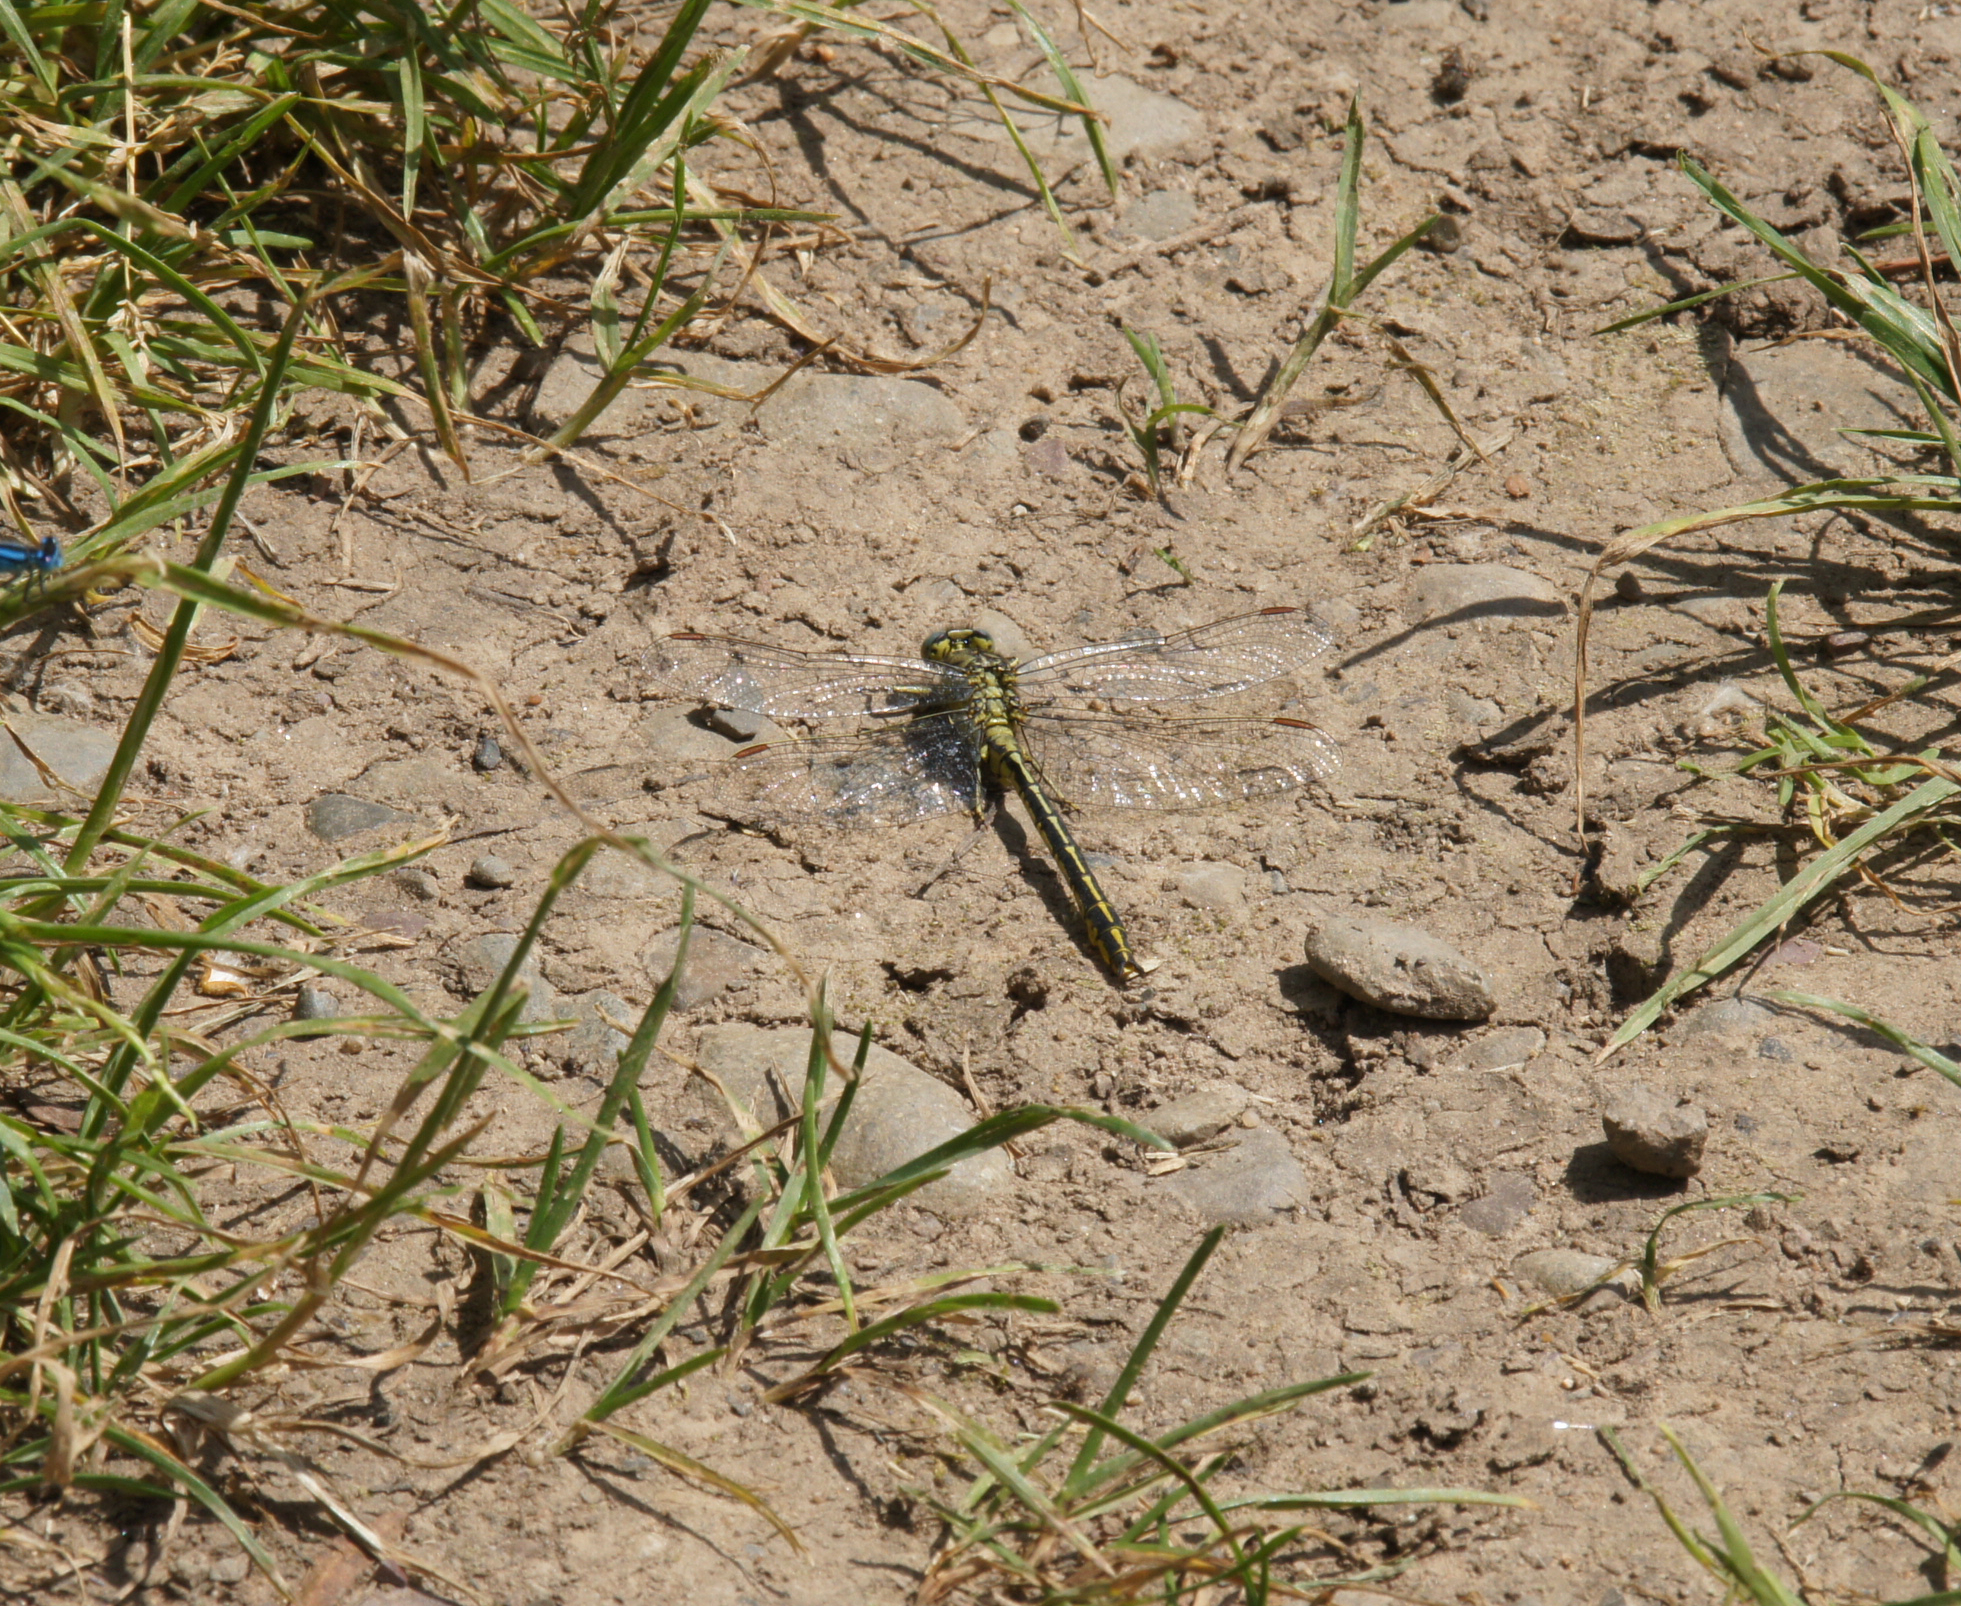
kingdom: Animalia
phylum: Arthropoda
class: Insecta
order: Odonata
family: Gomphidae
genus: Gomphus
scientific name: Gomphus pulchellus
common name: Western clubtail
